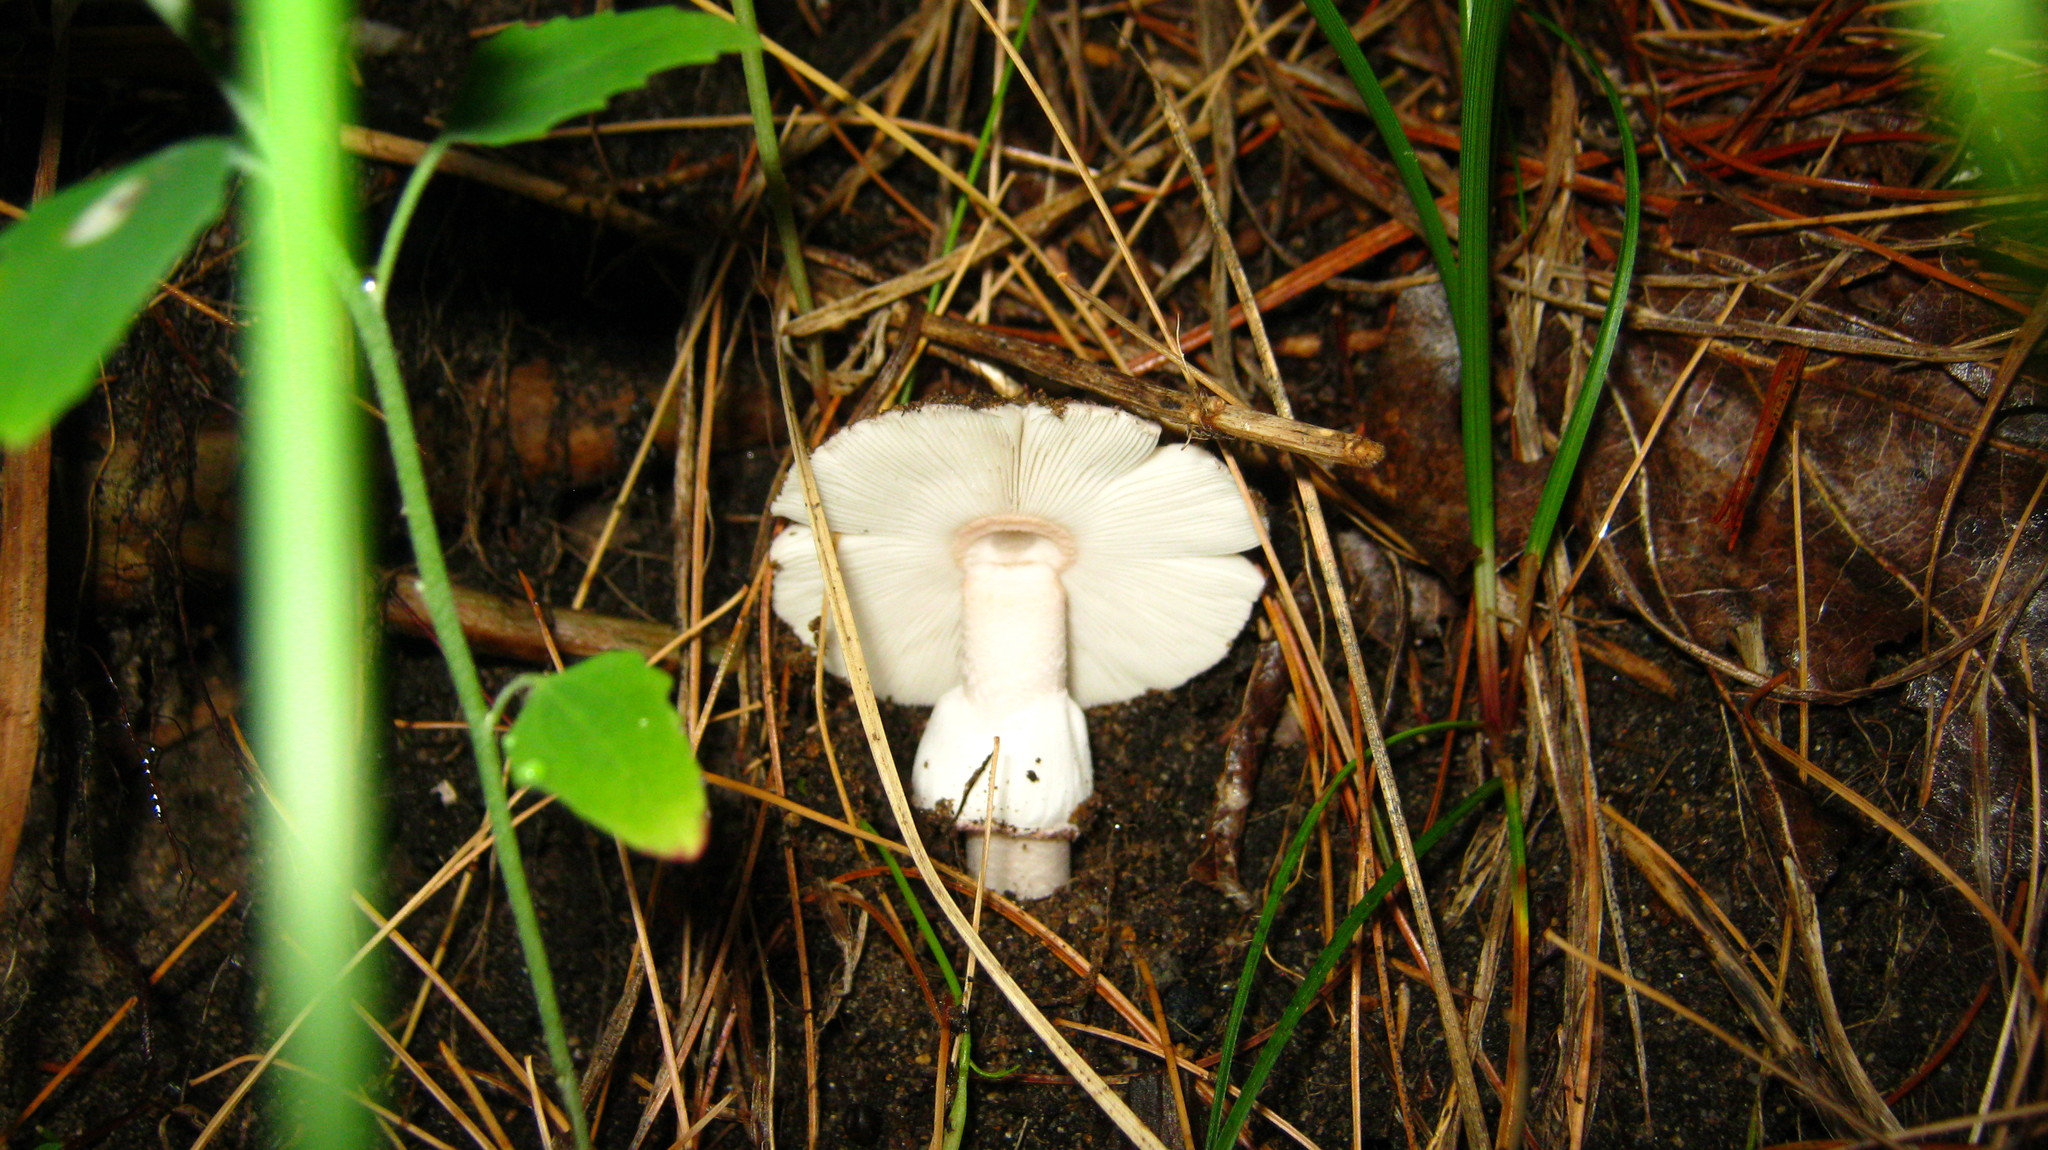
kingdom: Fungi
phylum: Basidiomycota
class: Agaricomycetes
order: Agaricales
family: Amanitaceae
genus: Amanita
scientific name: Amanita rubescens
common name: Blusher
